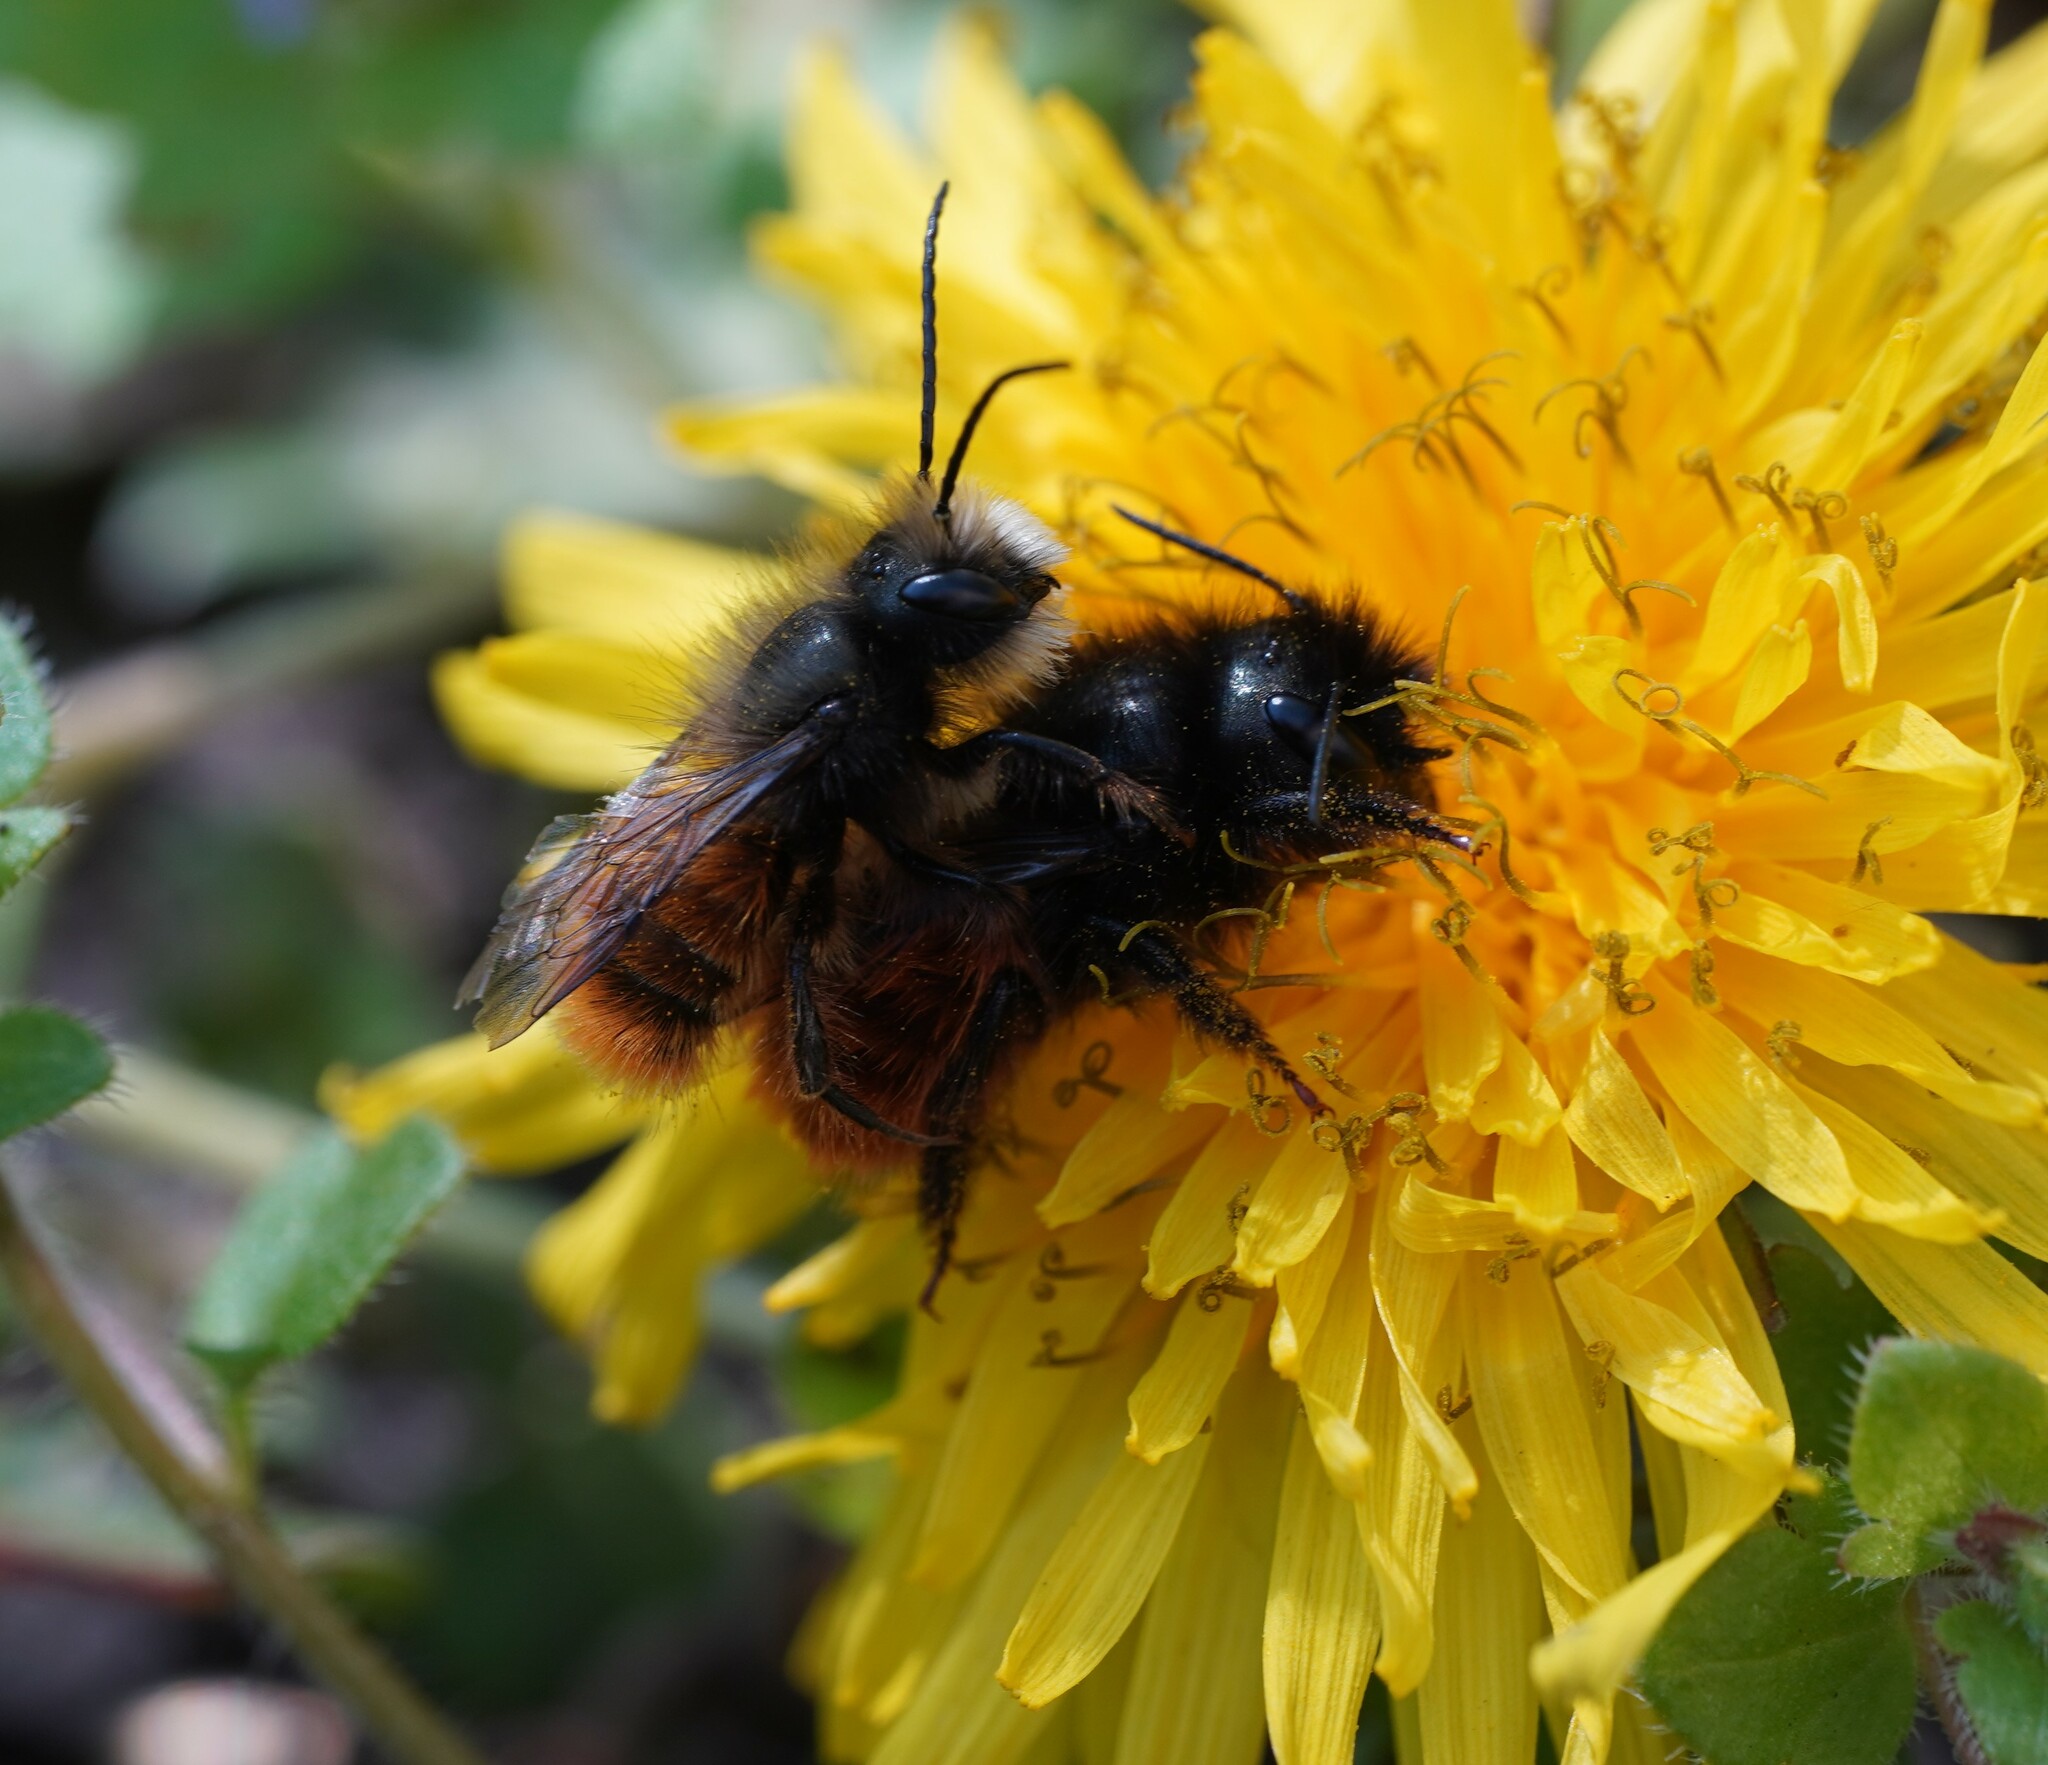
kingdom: Animalia
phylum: Arthropoda
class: Insecta
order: Hymenoptera
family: Megachilidae
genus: Osmia
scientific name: Osmia cornuta
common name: Mason bee
